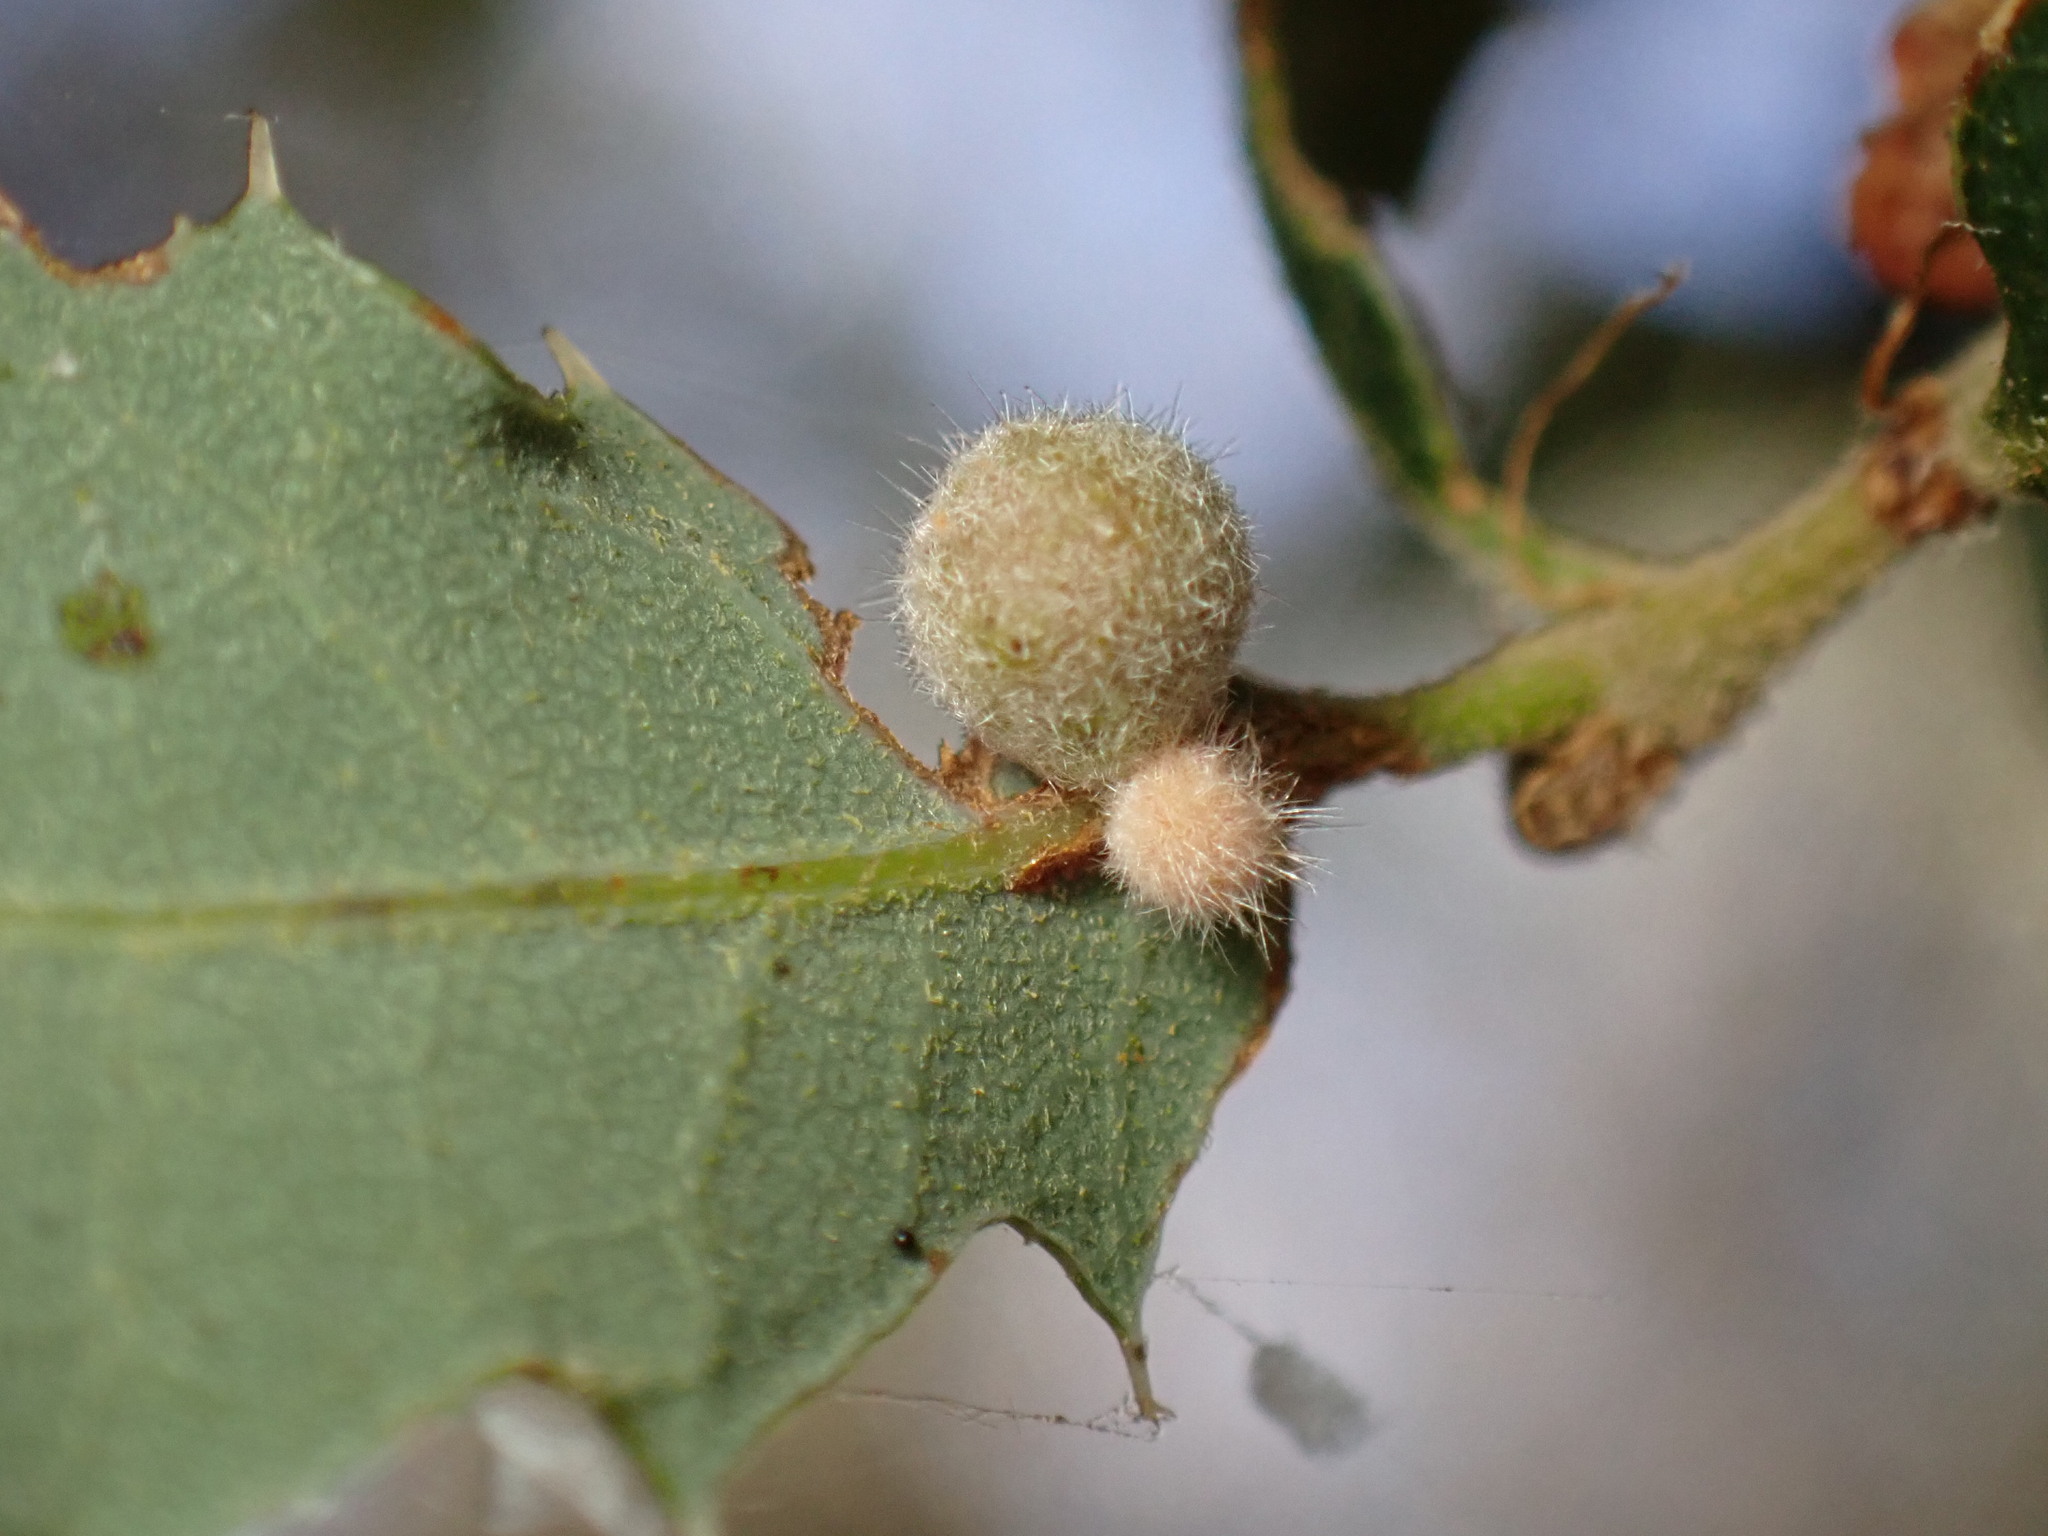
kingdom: Animalia
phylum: Arthropoda
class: Insecta
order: Hymenoptera
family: Cynipidae
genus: Andricus
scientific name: Andricus
